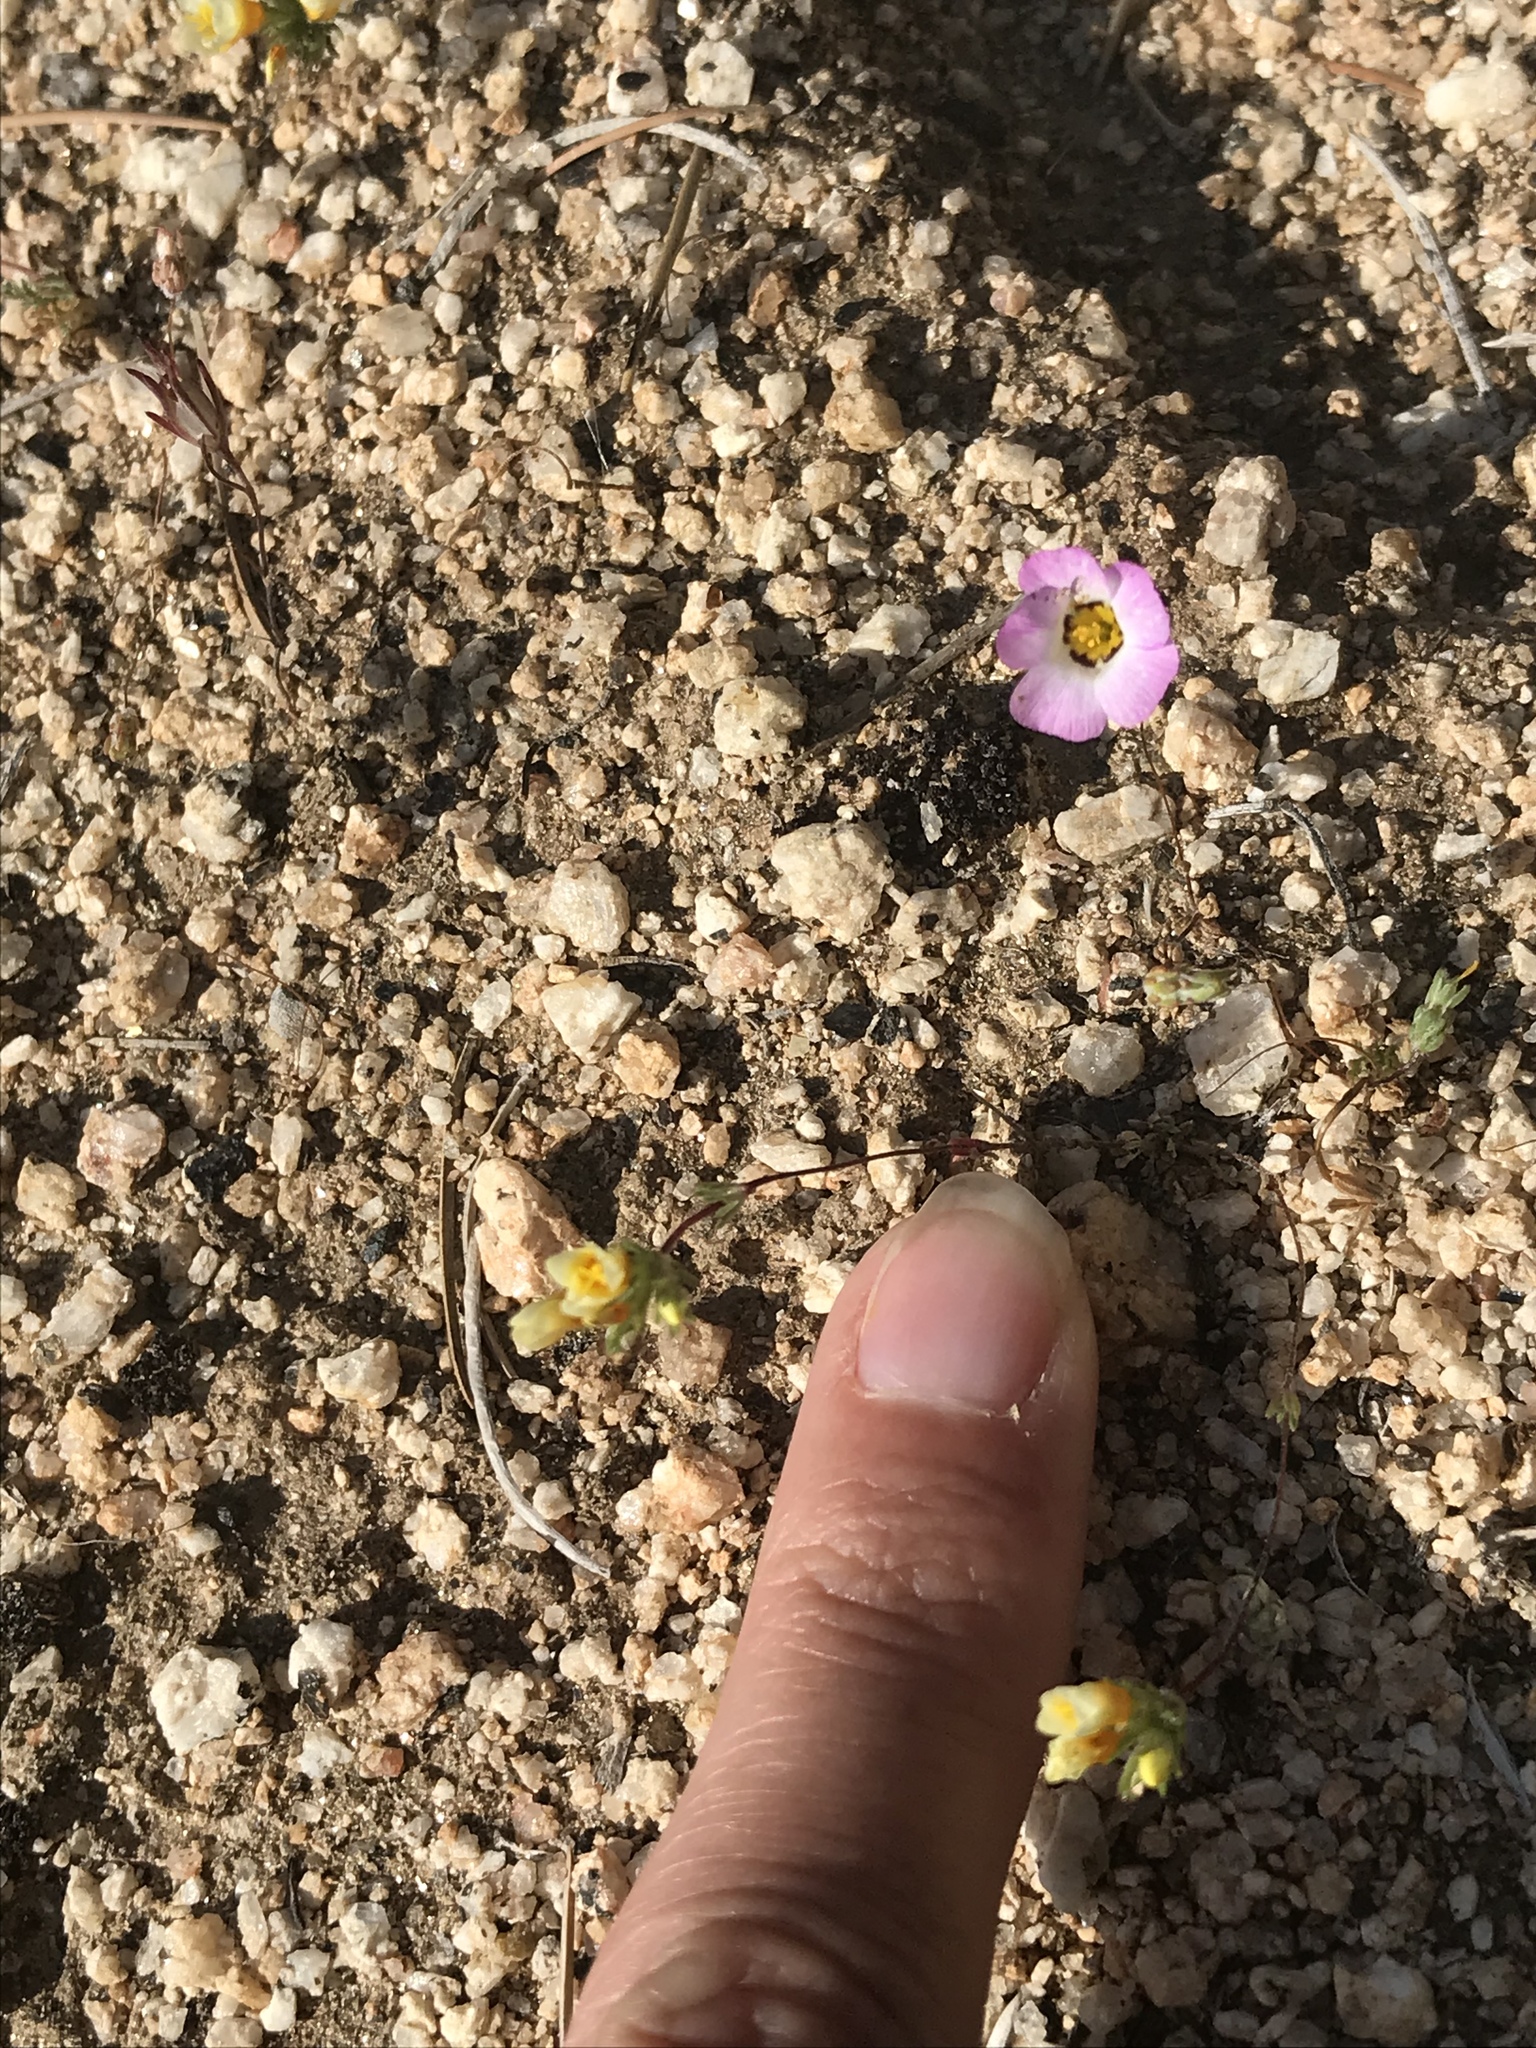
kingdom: Plantae
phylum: Tracheophyta
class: Magnoliopsida
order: Ericales
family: Polemoniaceae
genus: Linanthus
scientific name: Linanthus bellus
